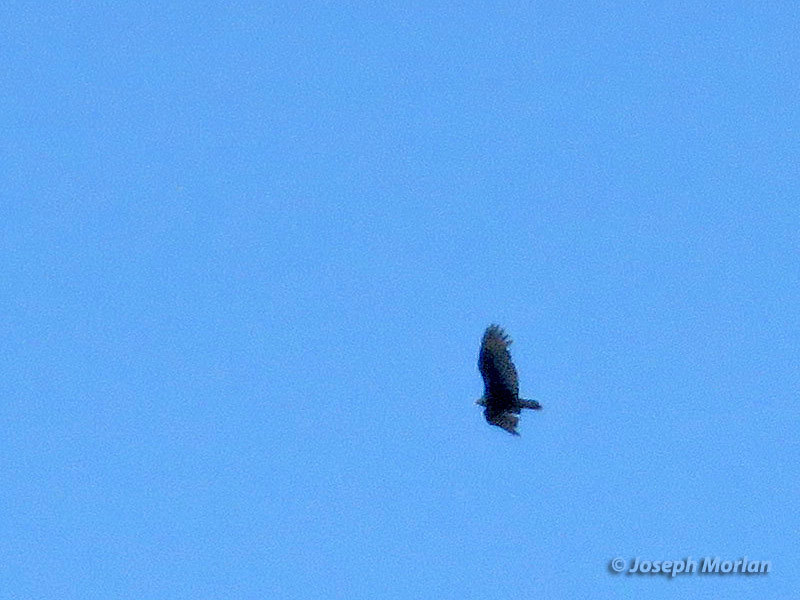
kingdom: Animalia
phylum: Chordata
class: Aves
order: Accipitriformes
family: Cathartidae
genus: Cathartes
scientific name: Cathartes aura
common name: Turkey vulture
